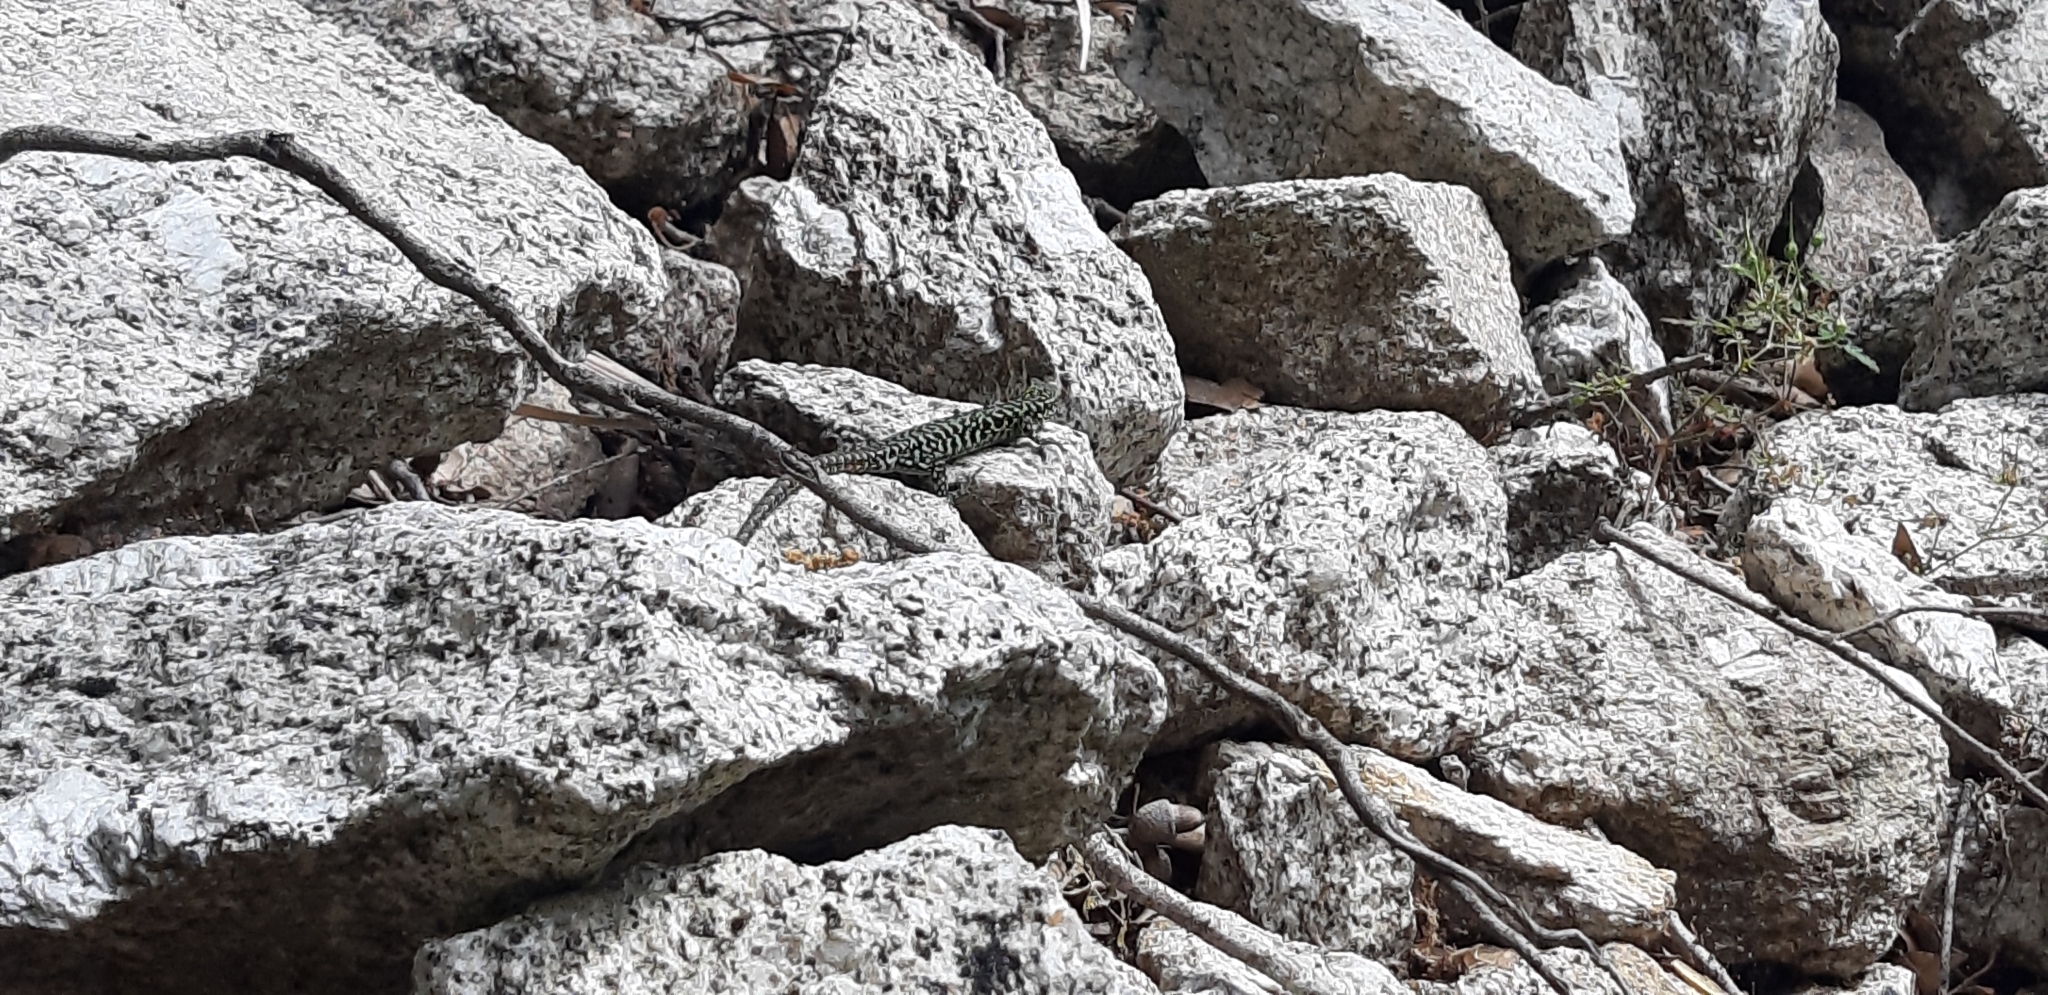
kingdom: Animalia
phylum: Chordata
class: Squamata
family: Lacertidae
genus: Podarcis
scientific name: Podarcis muralis
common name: Common wall lizard
